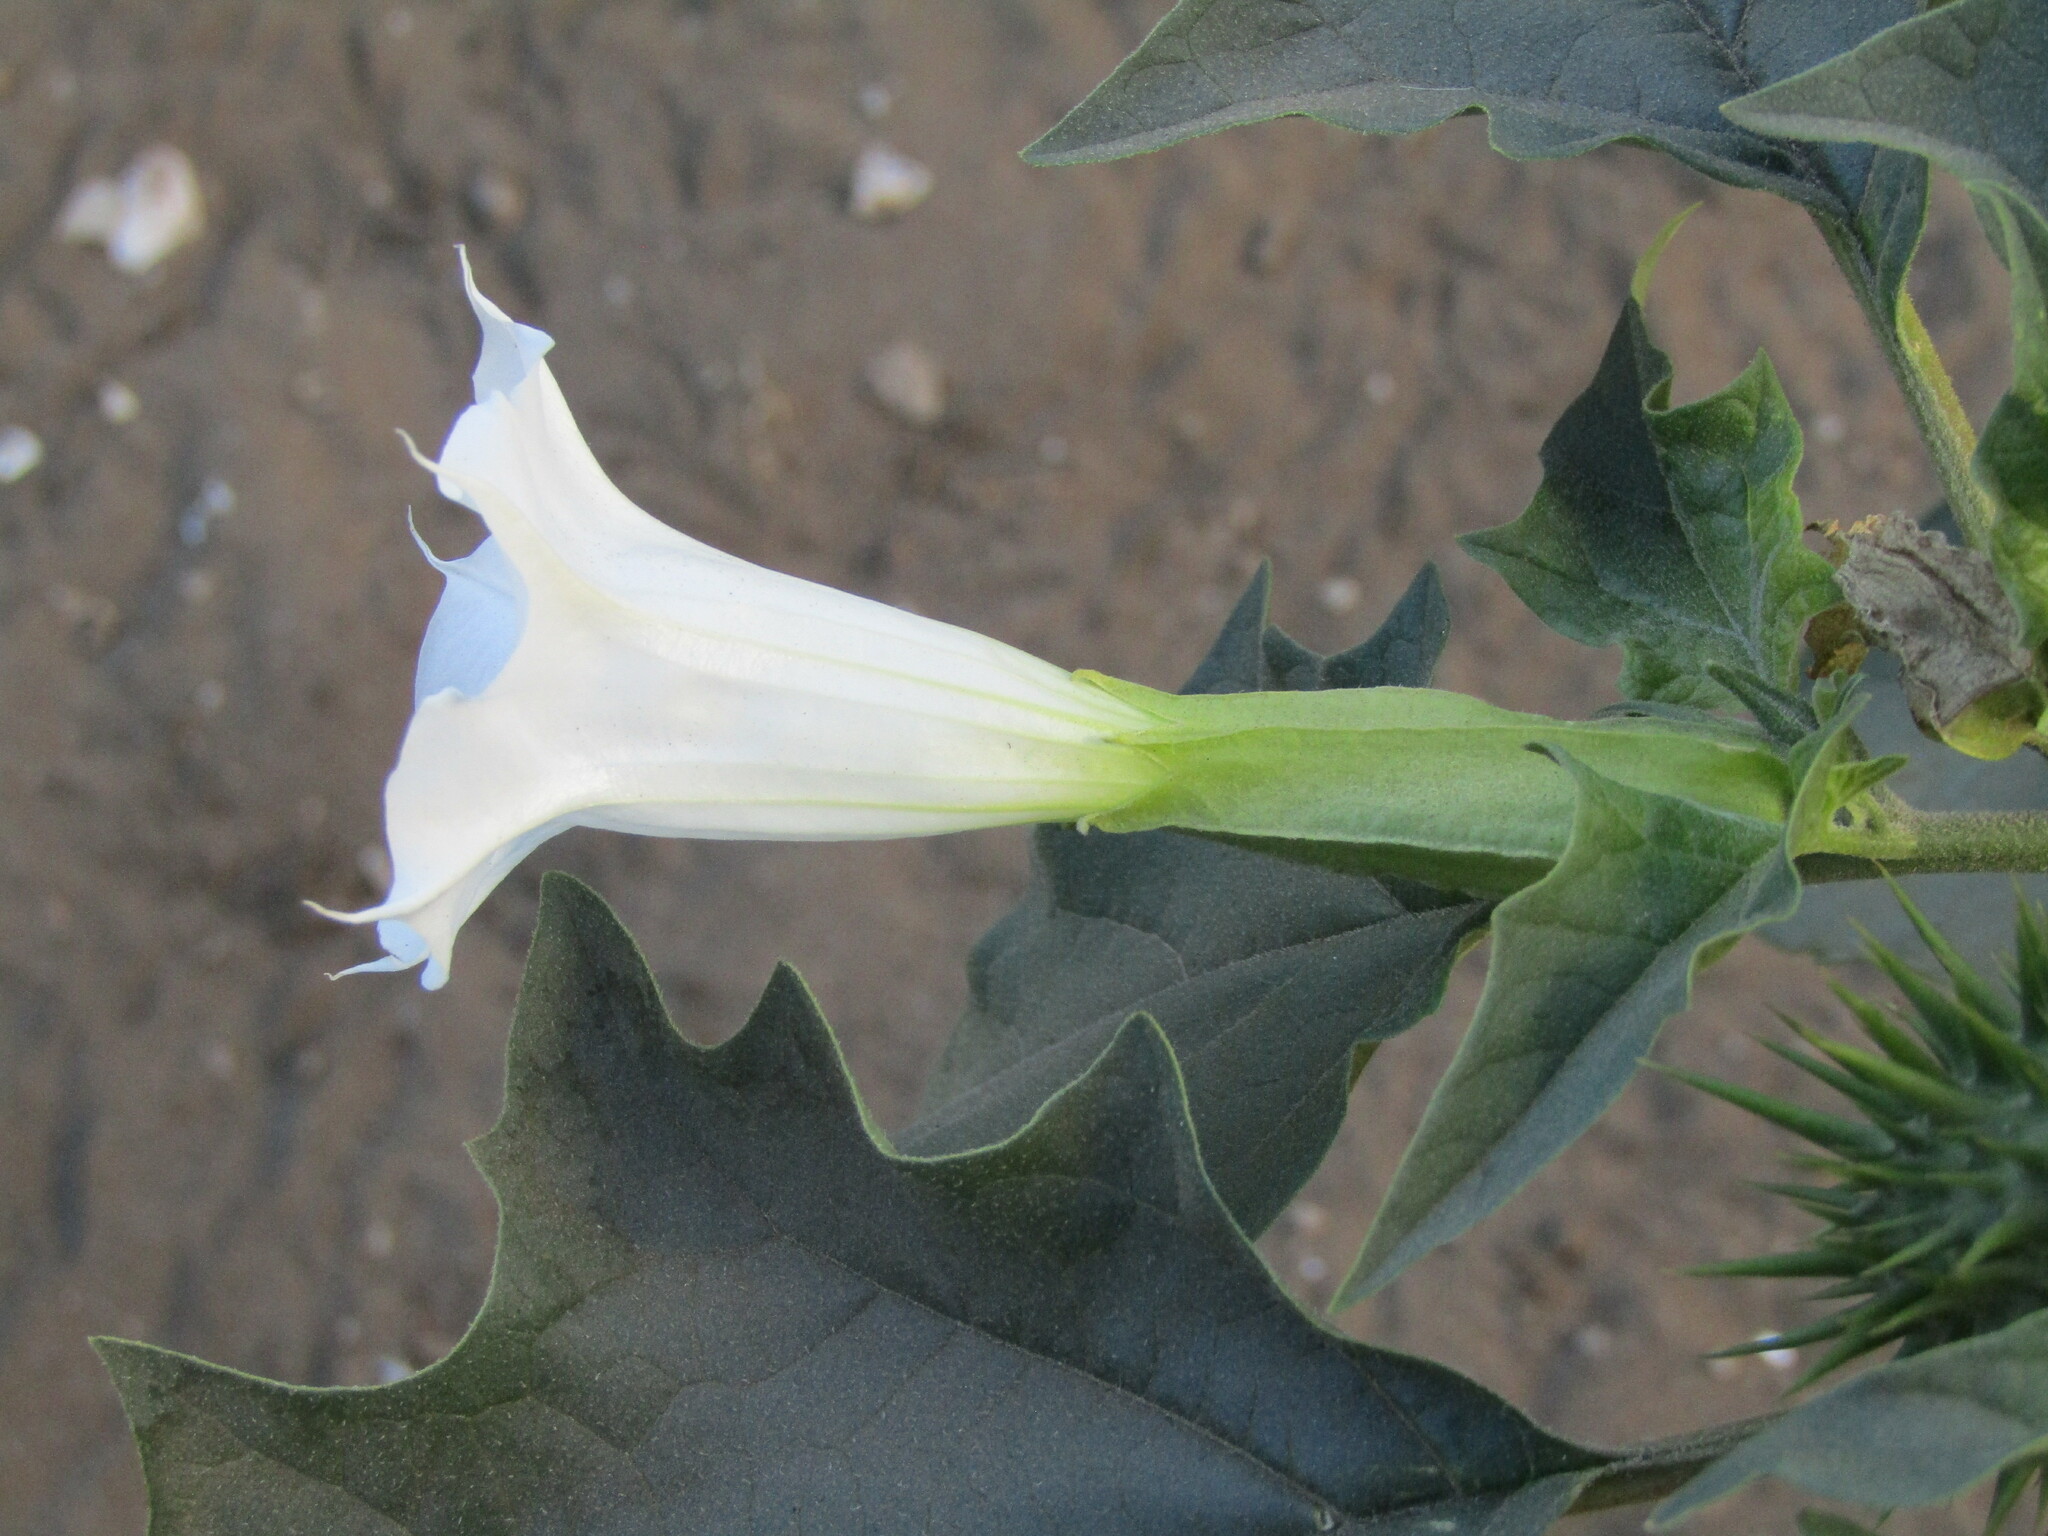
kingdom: Plantae
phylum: Tracheophyta
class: Magnoliopsida
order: Solanales
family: Solanaceae
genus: Datura
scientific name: Datura stramonium
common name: Thorn-apple
